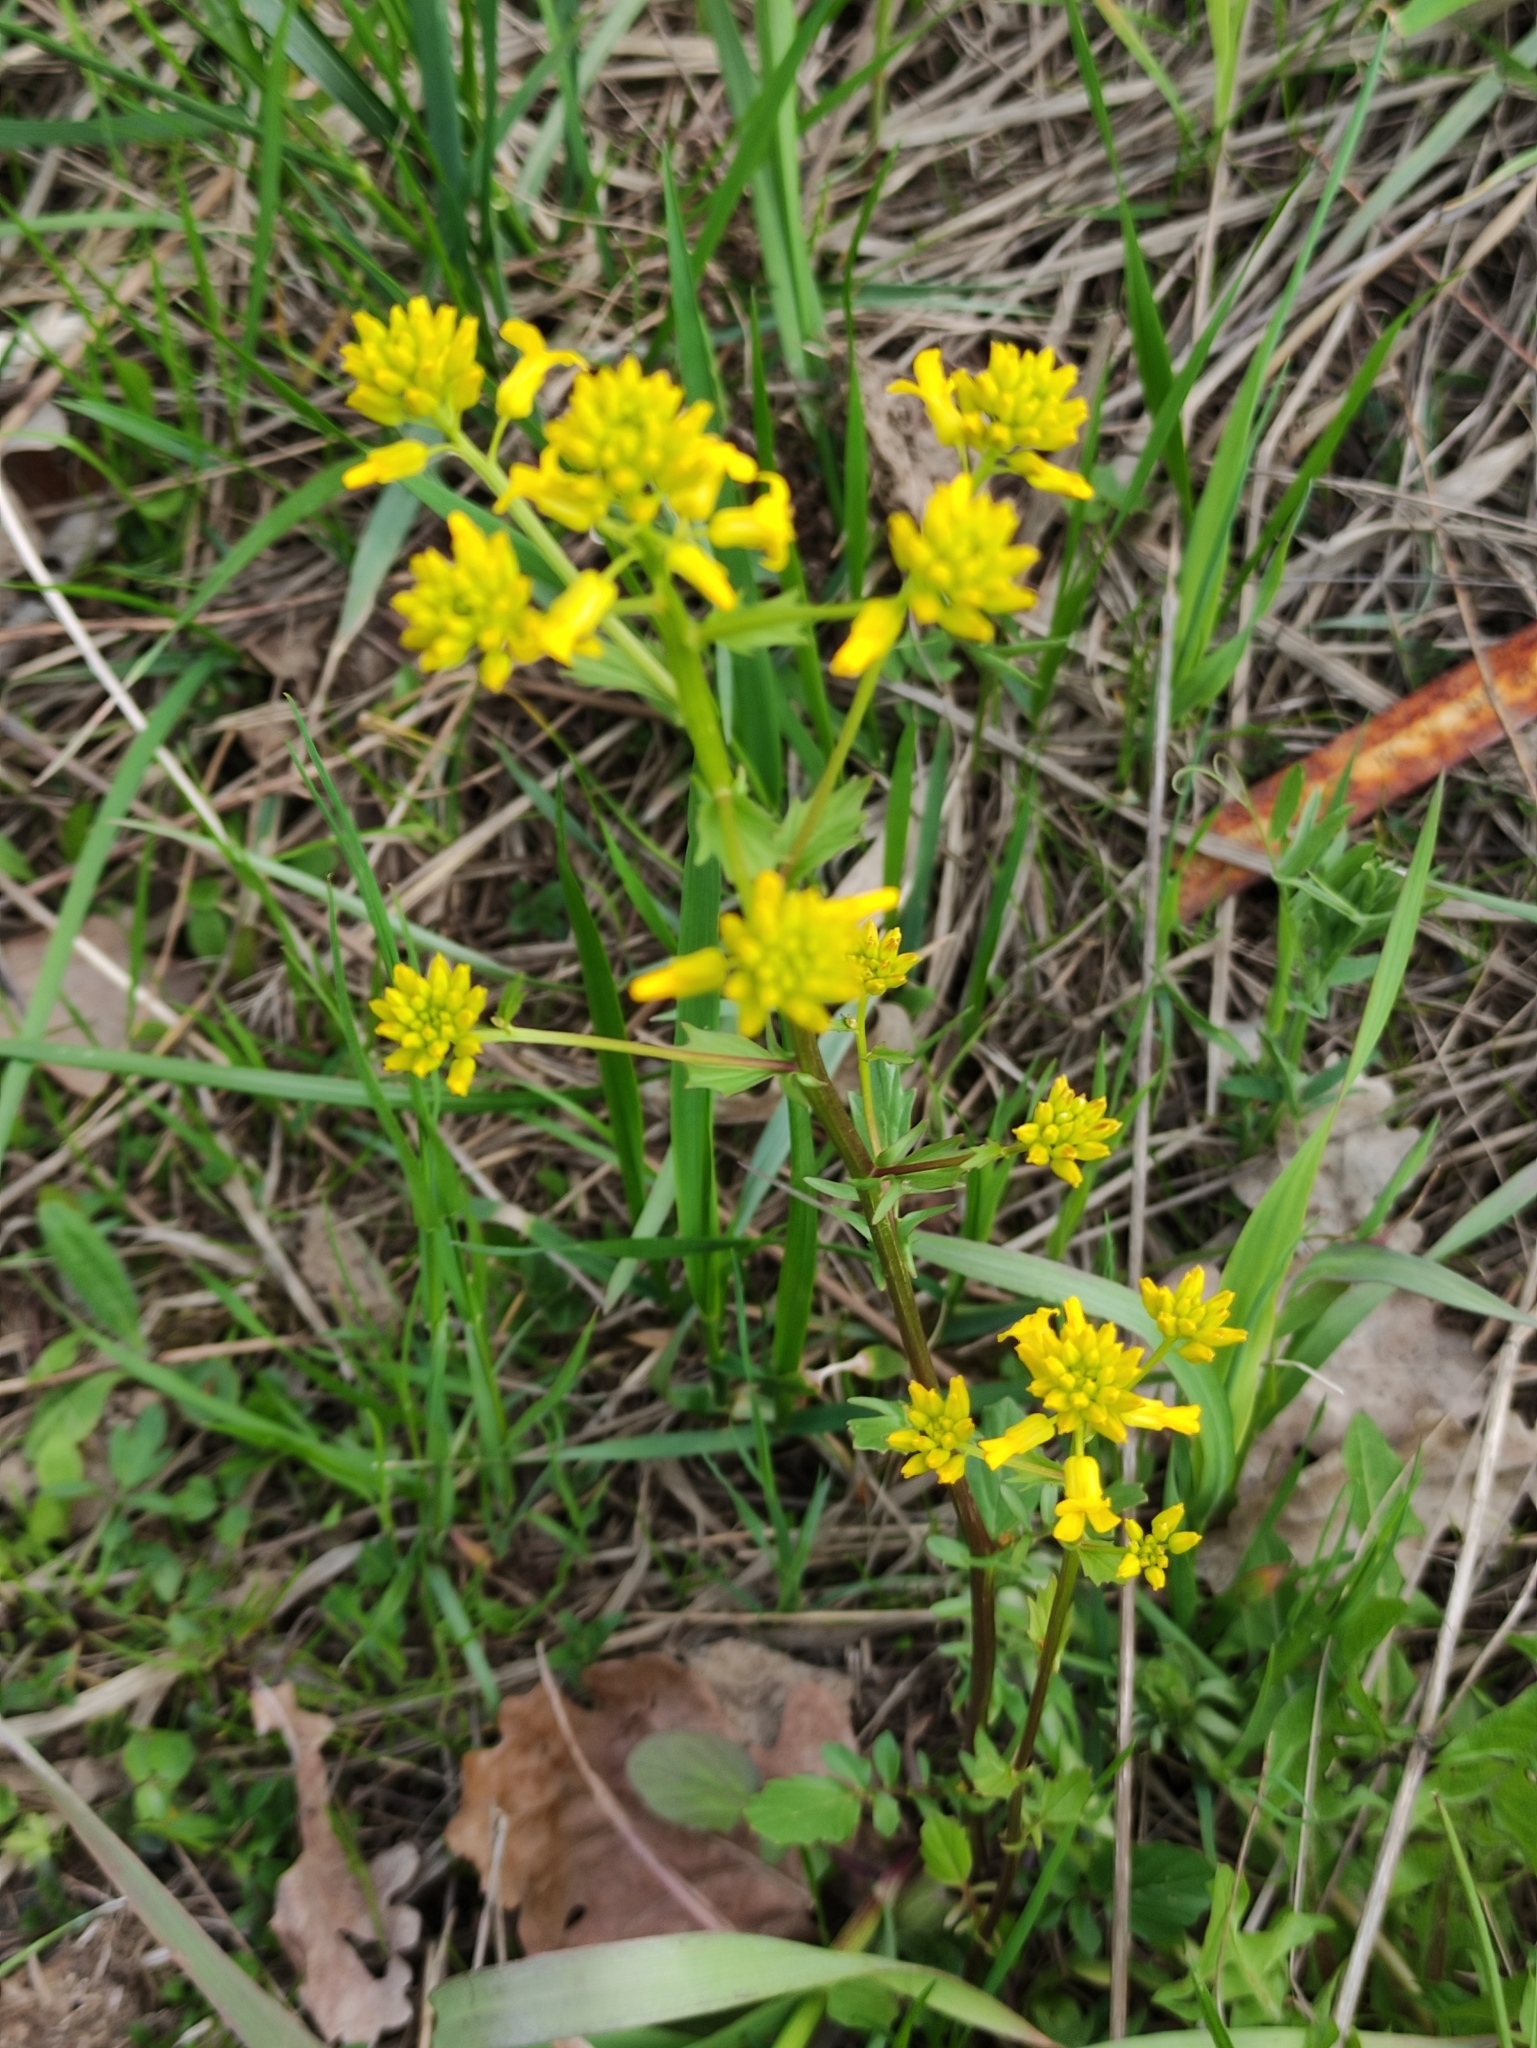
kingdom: Plantae
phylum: Tracheophyta
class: Magnoliopsida
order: Brassicales
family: Brassicaceae
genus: Barbarea
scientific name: Barbarea vulgaris
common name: Cressy-greens
